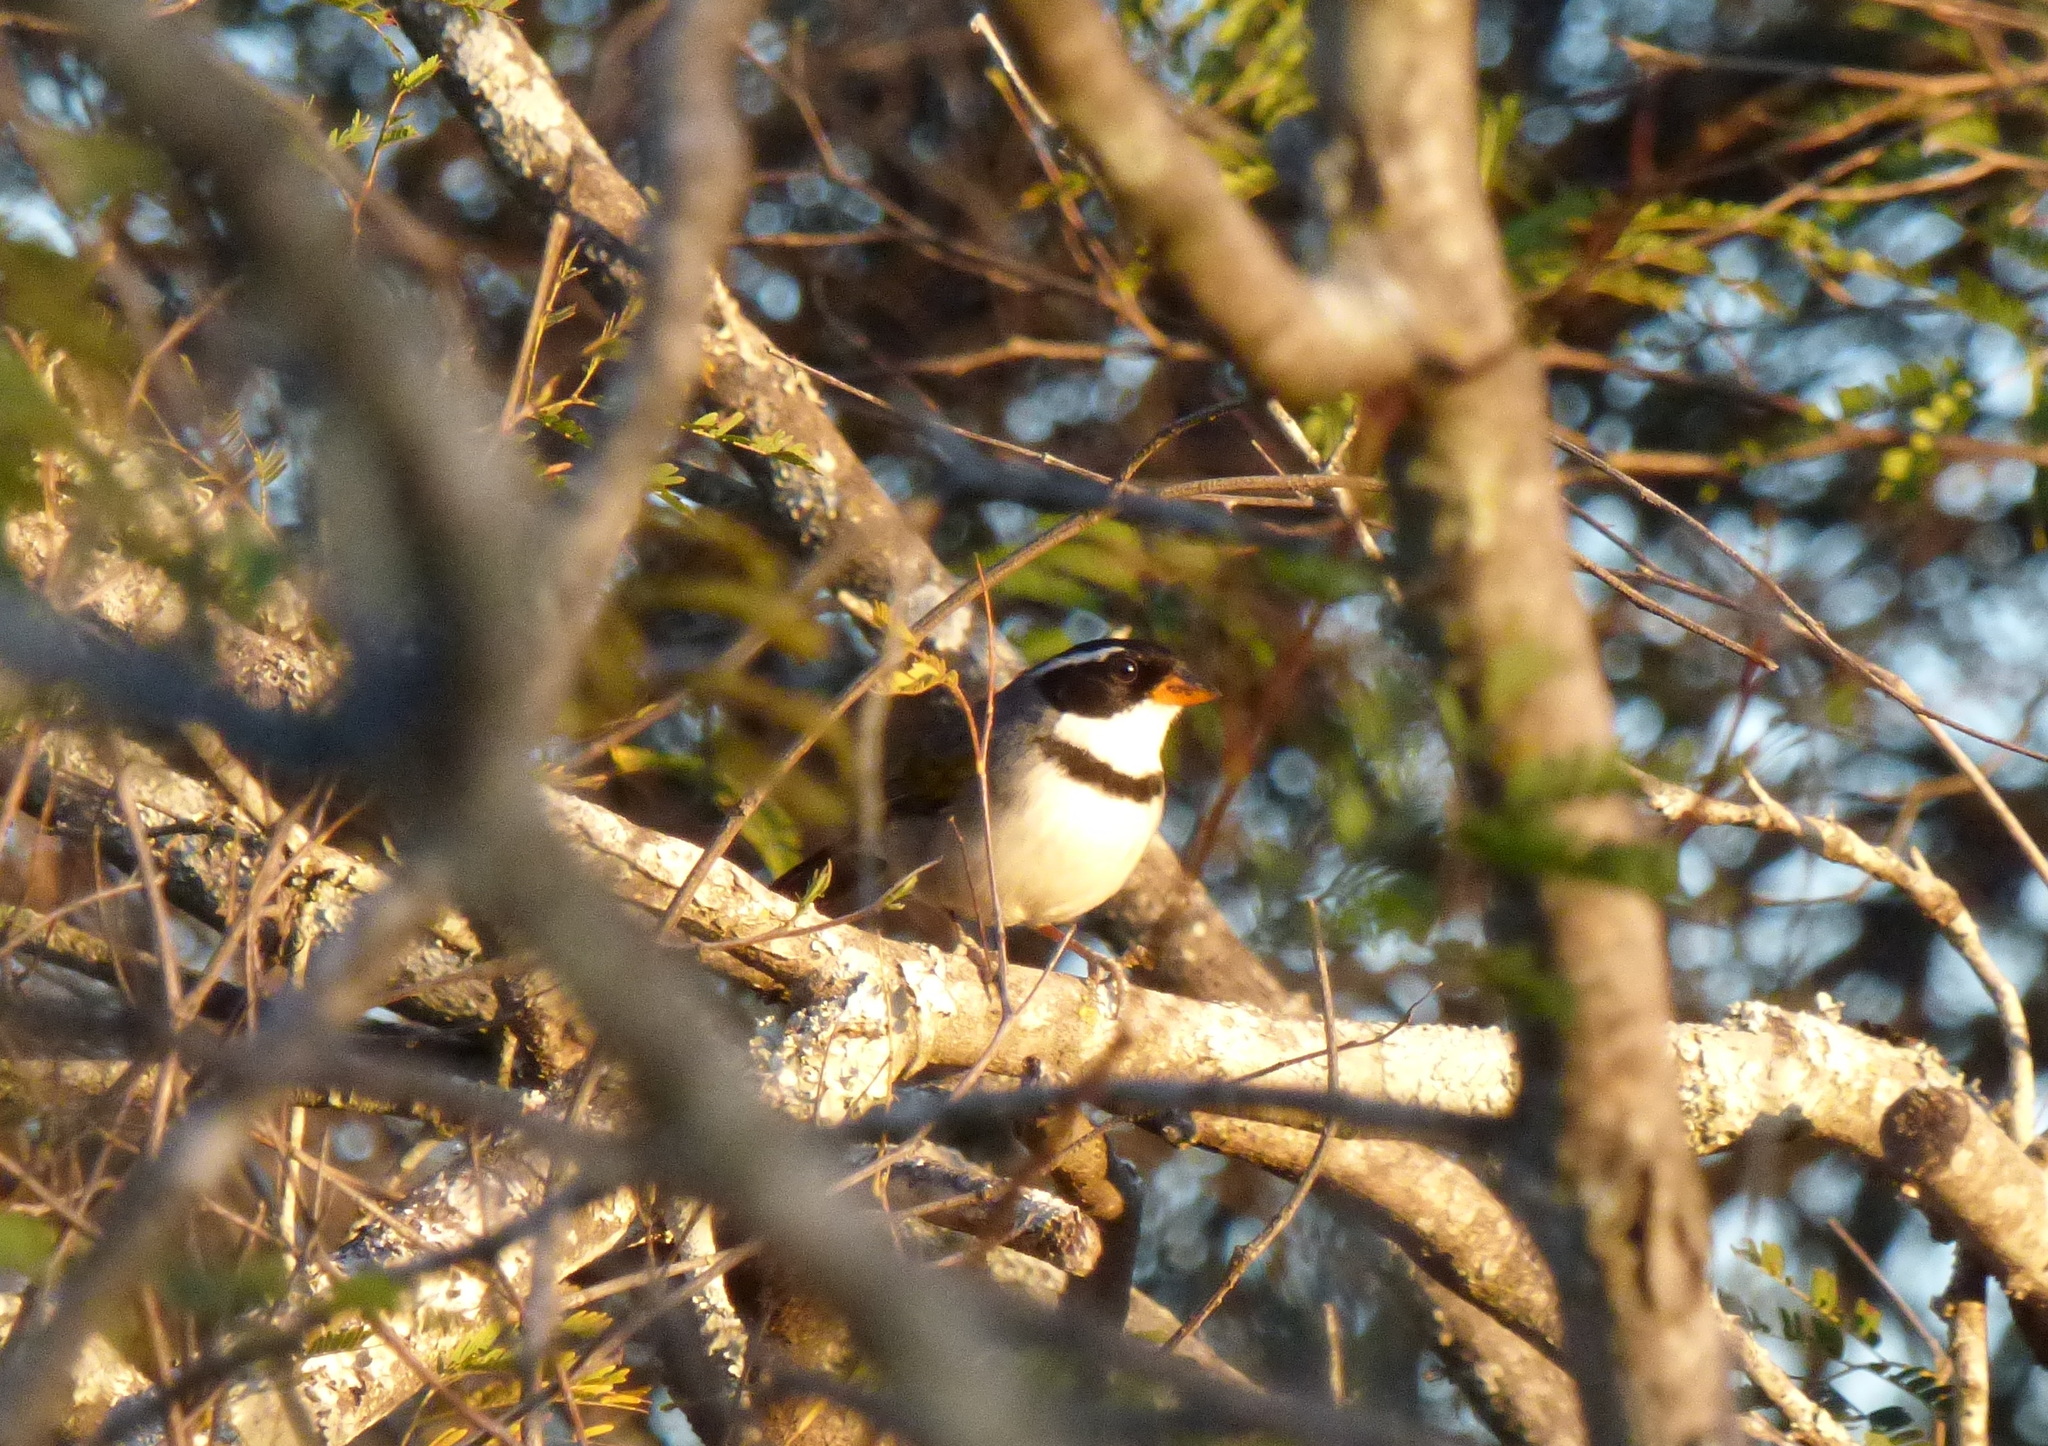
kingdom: Animalia
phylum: Chordata
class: Aves
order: Passeriformes
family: Passerellidae
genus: Arremon
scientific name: Arremon flavirostris
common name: Saffron-billed sparrow
